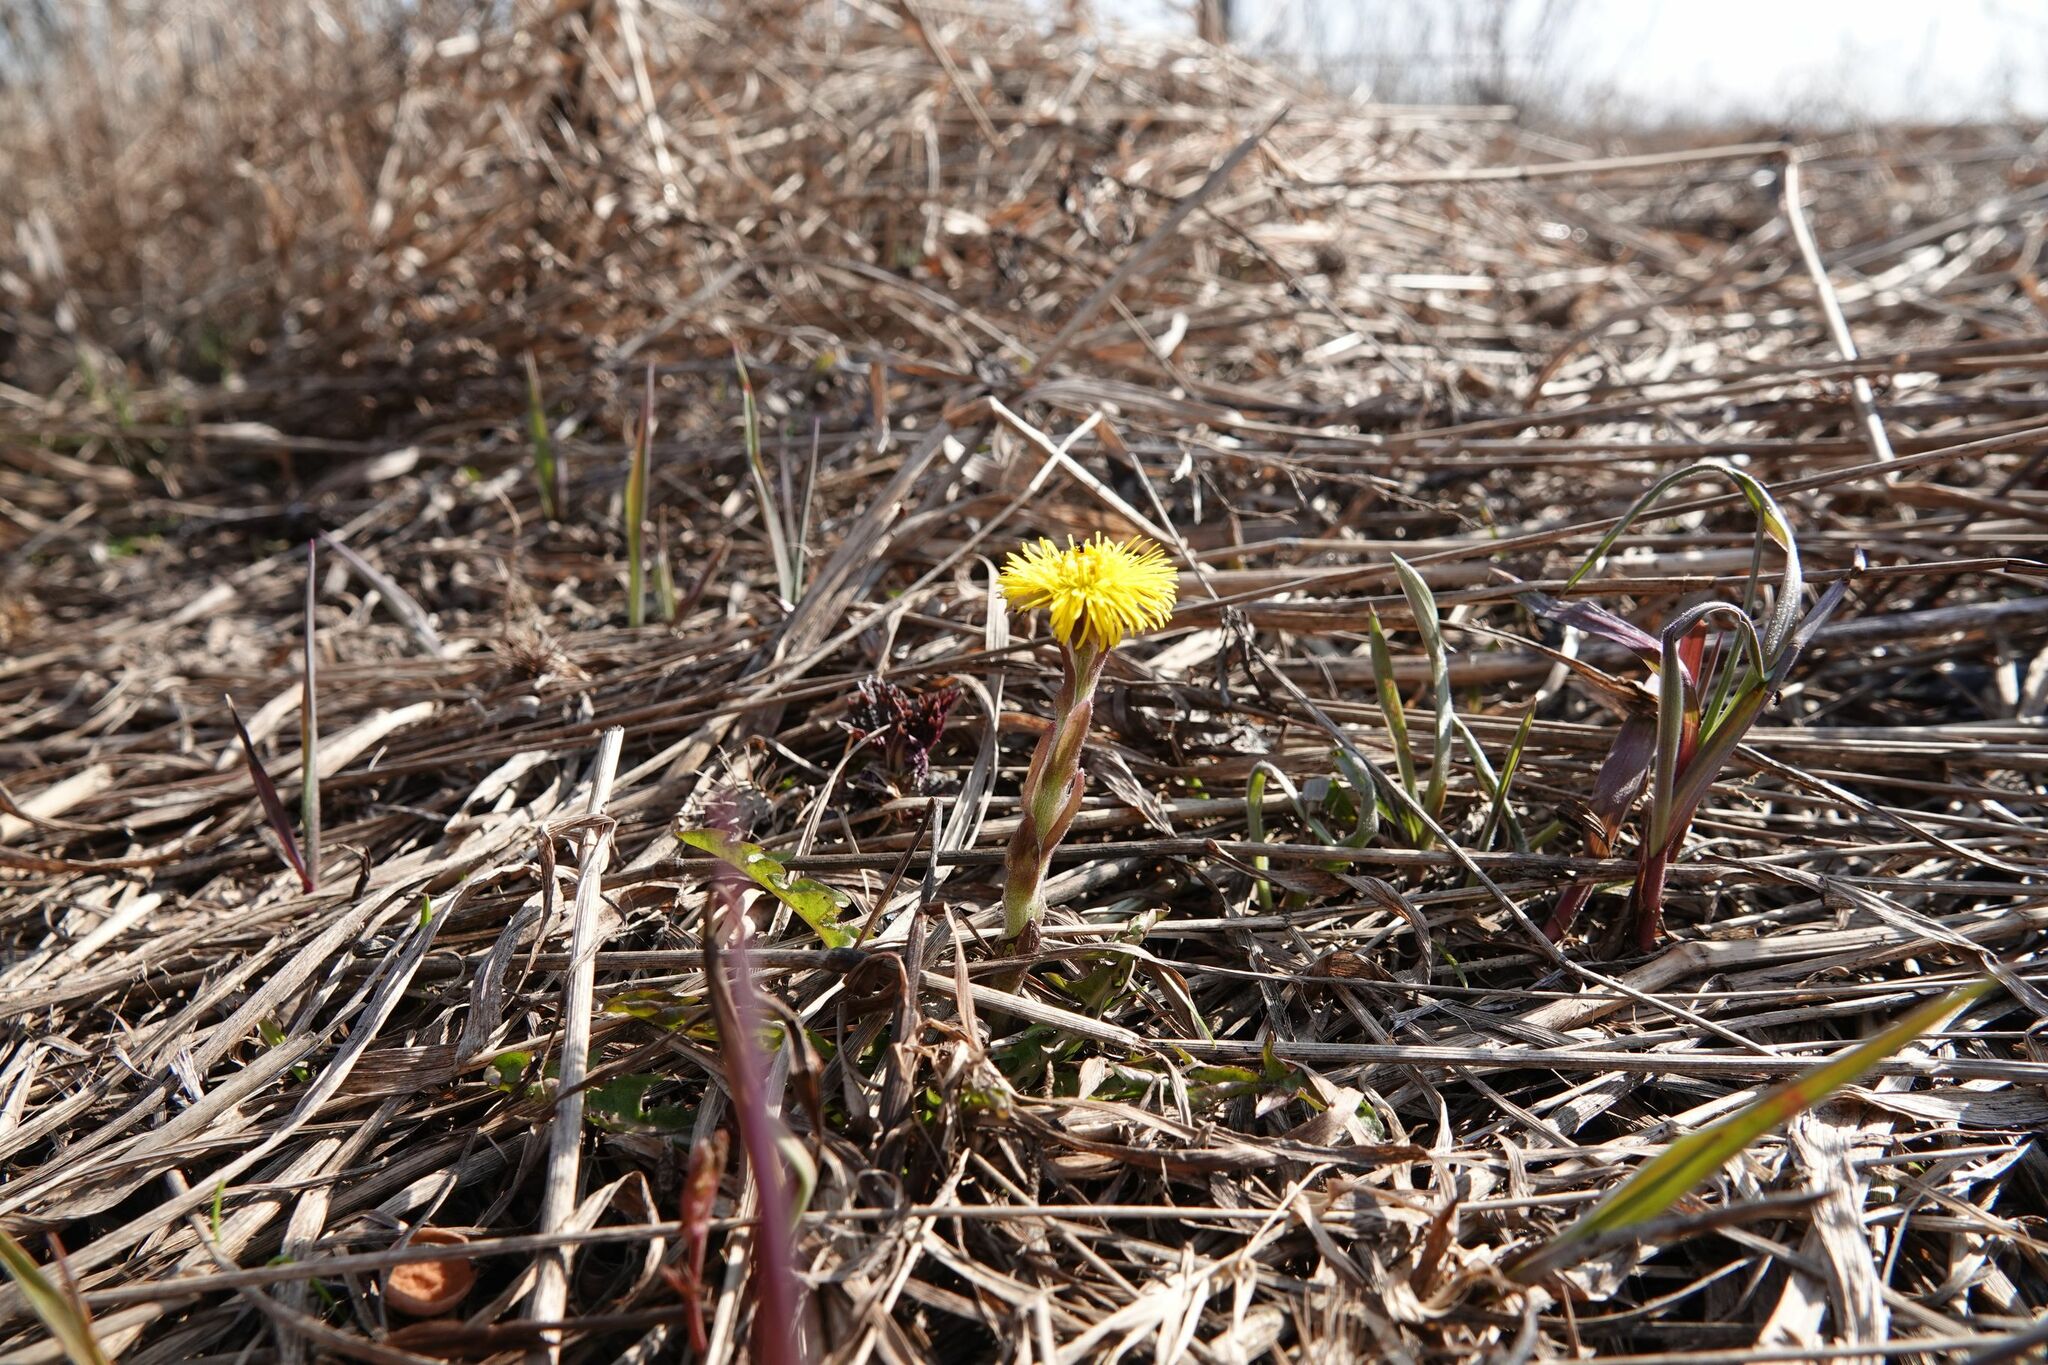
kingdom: Plantae
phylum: Tracheophyta
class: Magnoliopsida
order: Asterales
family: Asteraceae
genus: Tussilago
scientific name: Tussilago farfara
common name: Coltsfoot
